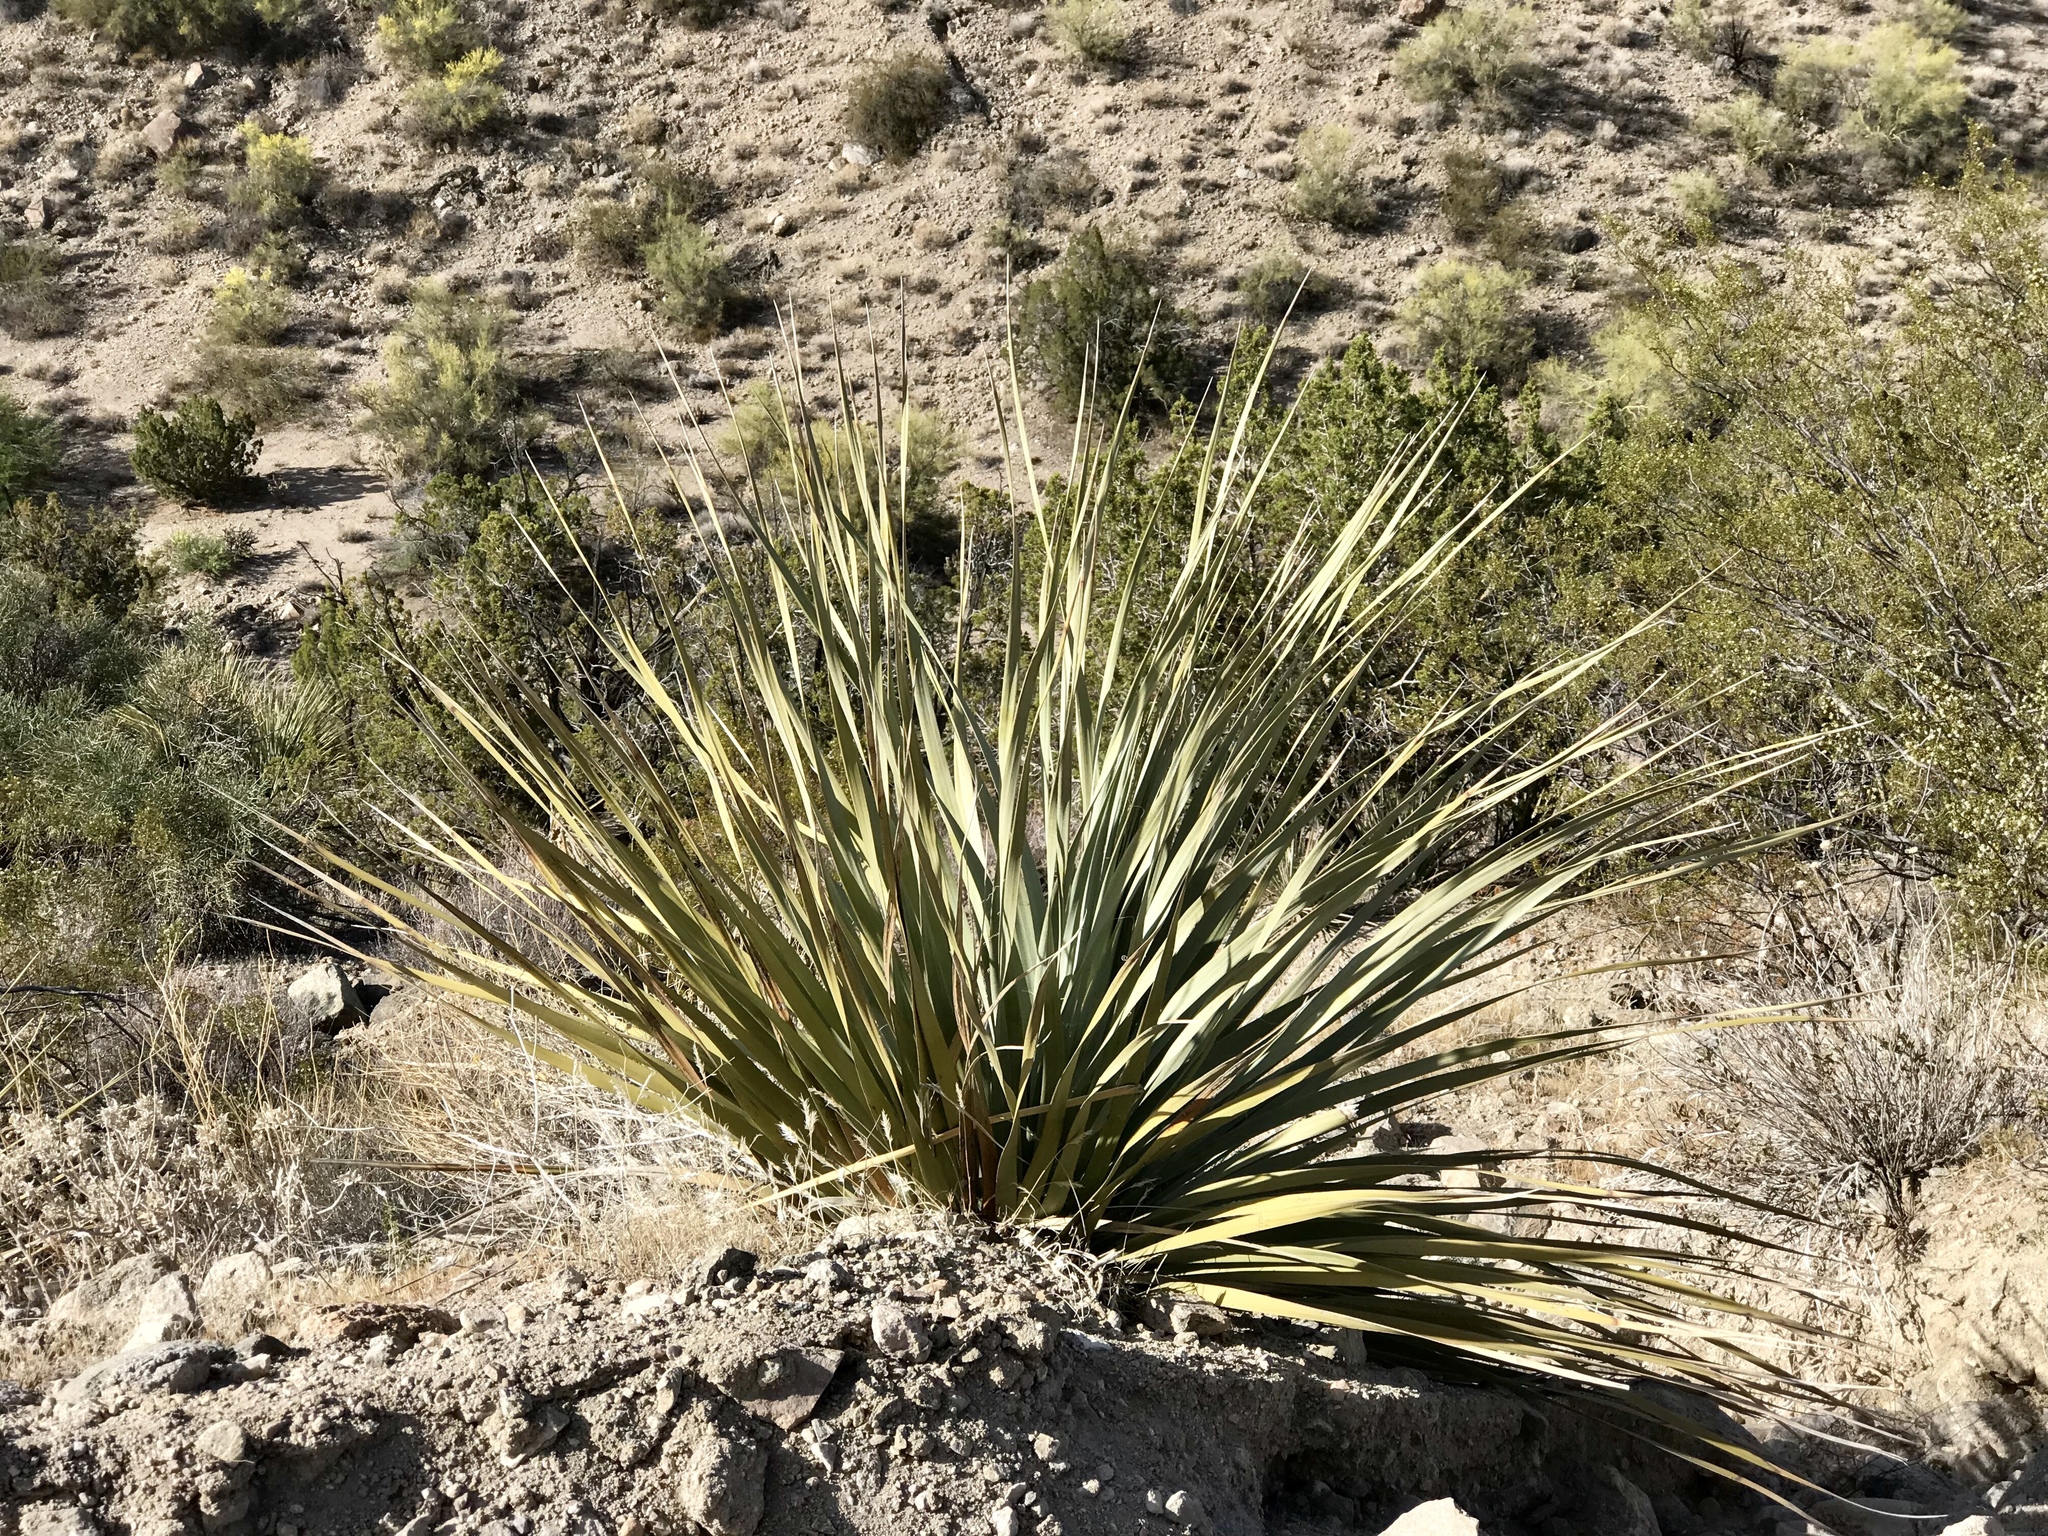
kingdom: Plantae
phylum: Tracheophyta
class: Liliopsida
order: Asparagales
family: Asparagaceae
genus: Nolina
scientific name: Nolina bigelovii
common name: Bigelow bear-grass
